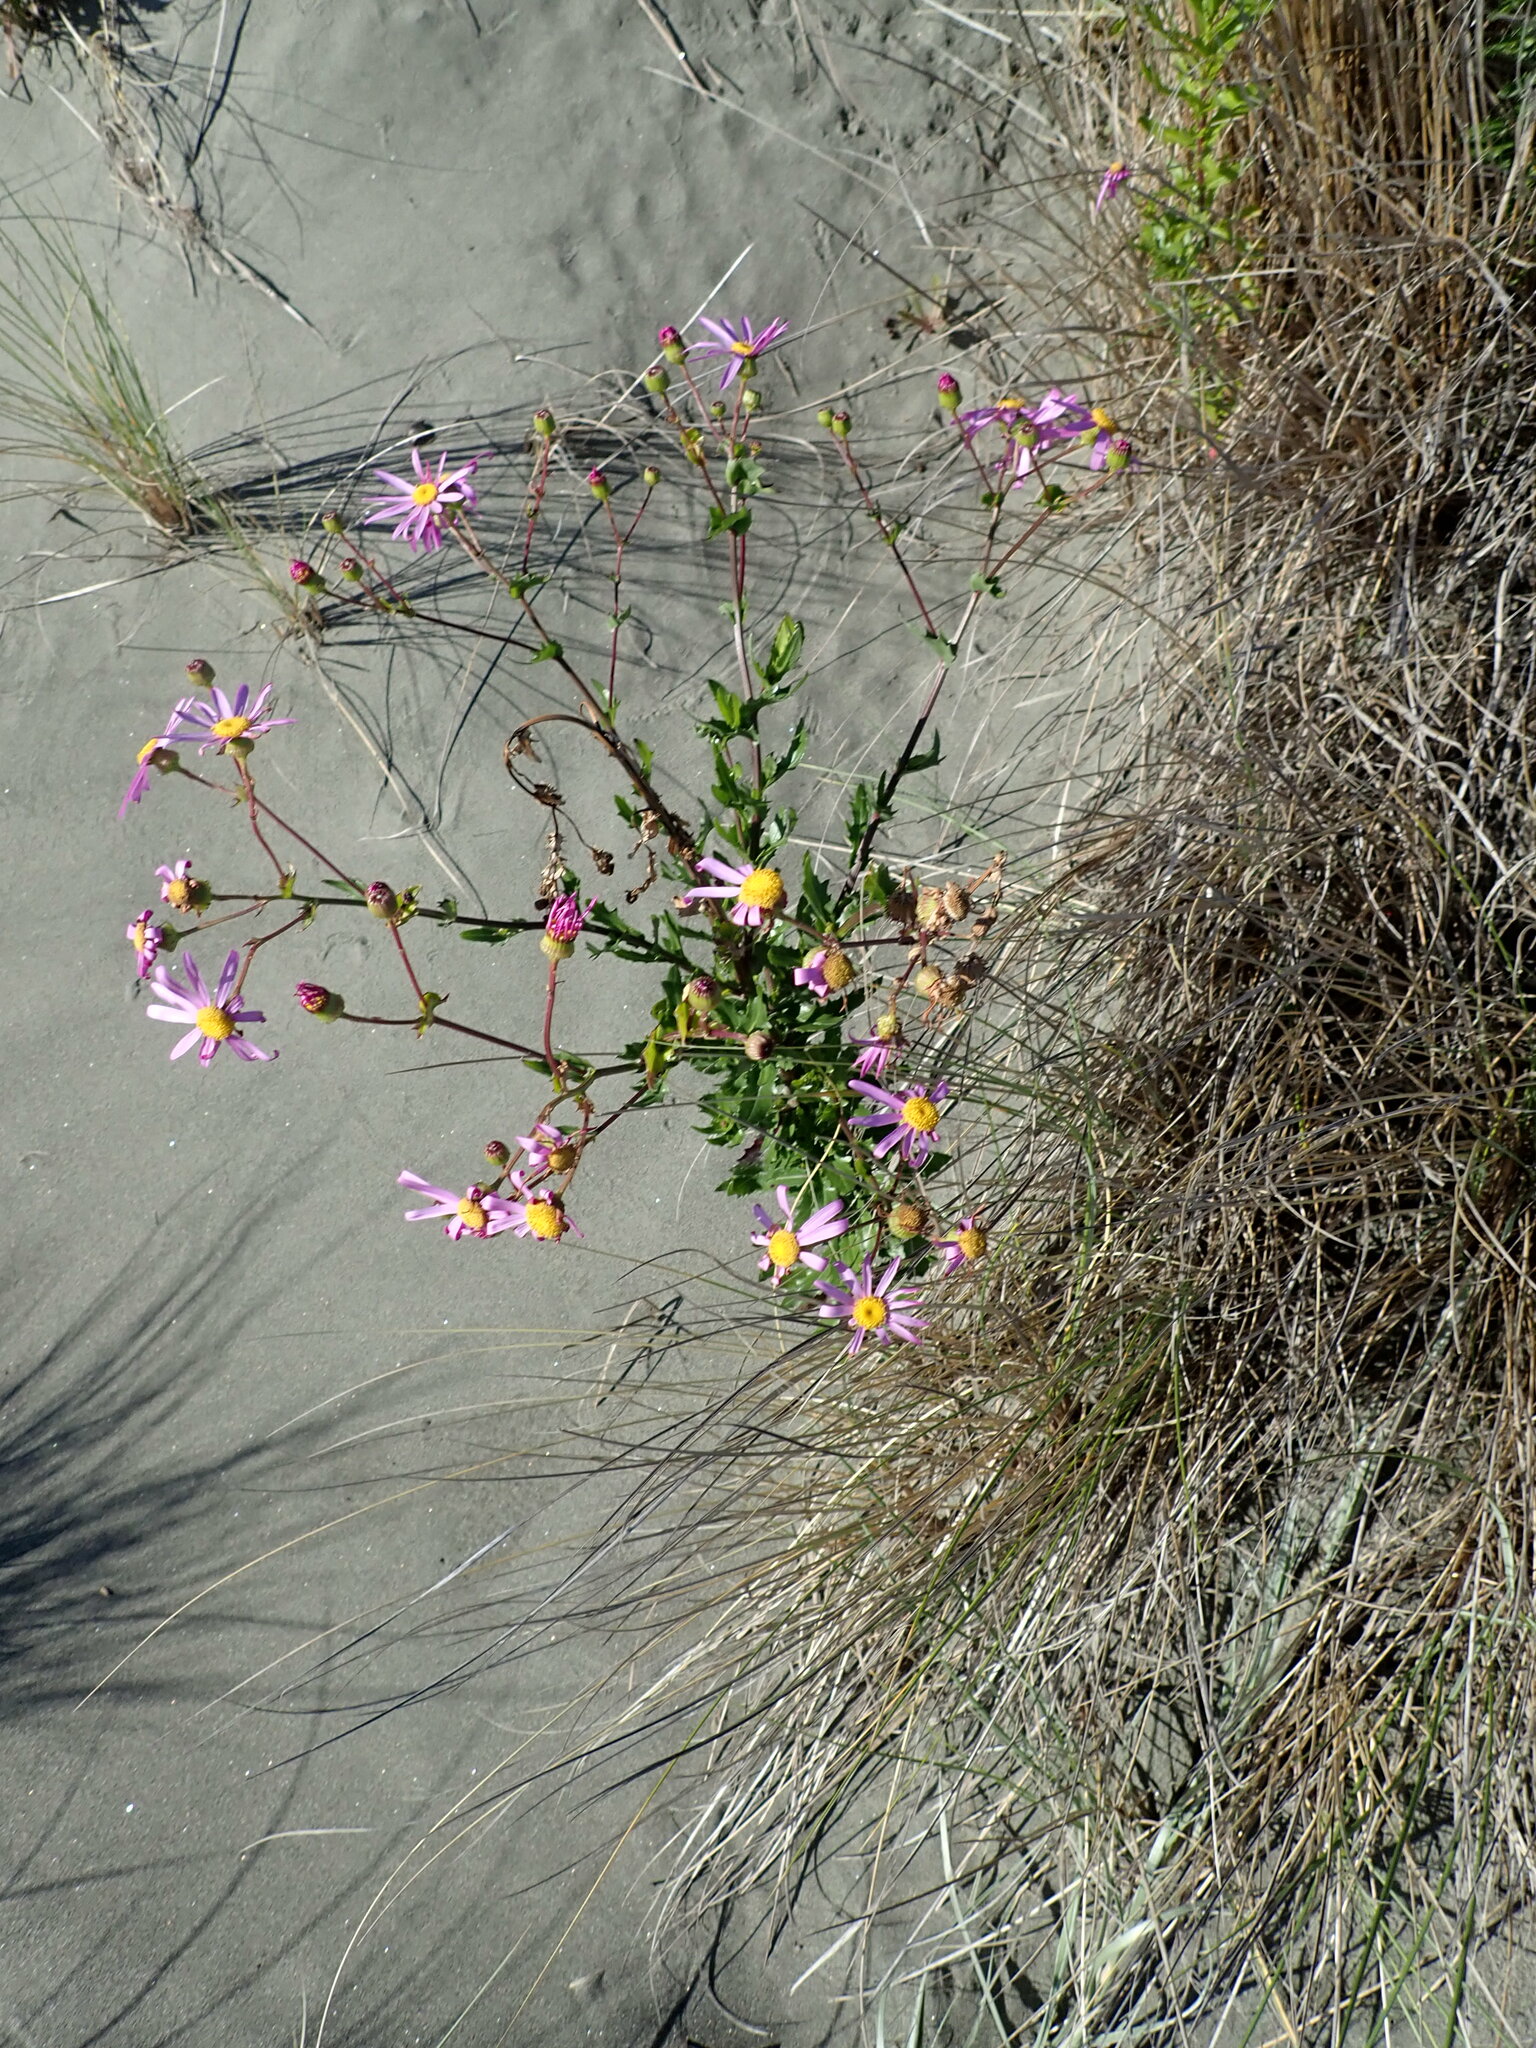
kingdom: Plantae
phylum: Tracheophyta
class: Magnoliopsida
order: Asterales
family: Asteraceae
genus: Senecio
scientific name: Senecio glastifolius
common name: Woad-leaved ragwort
